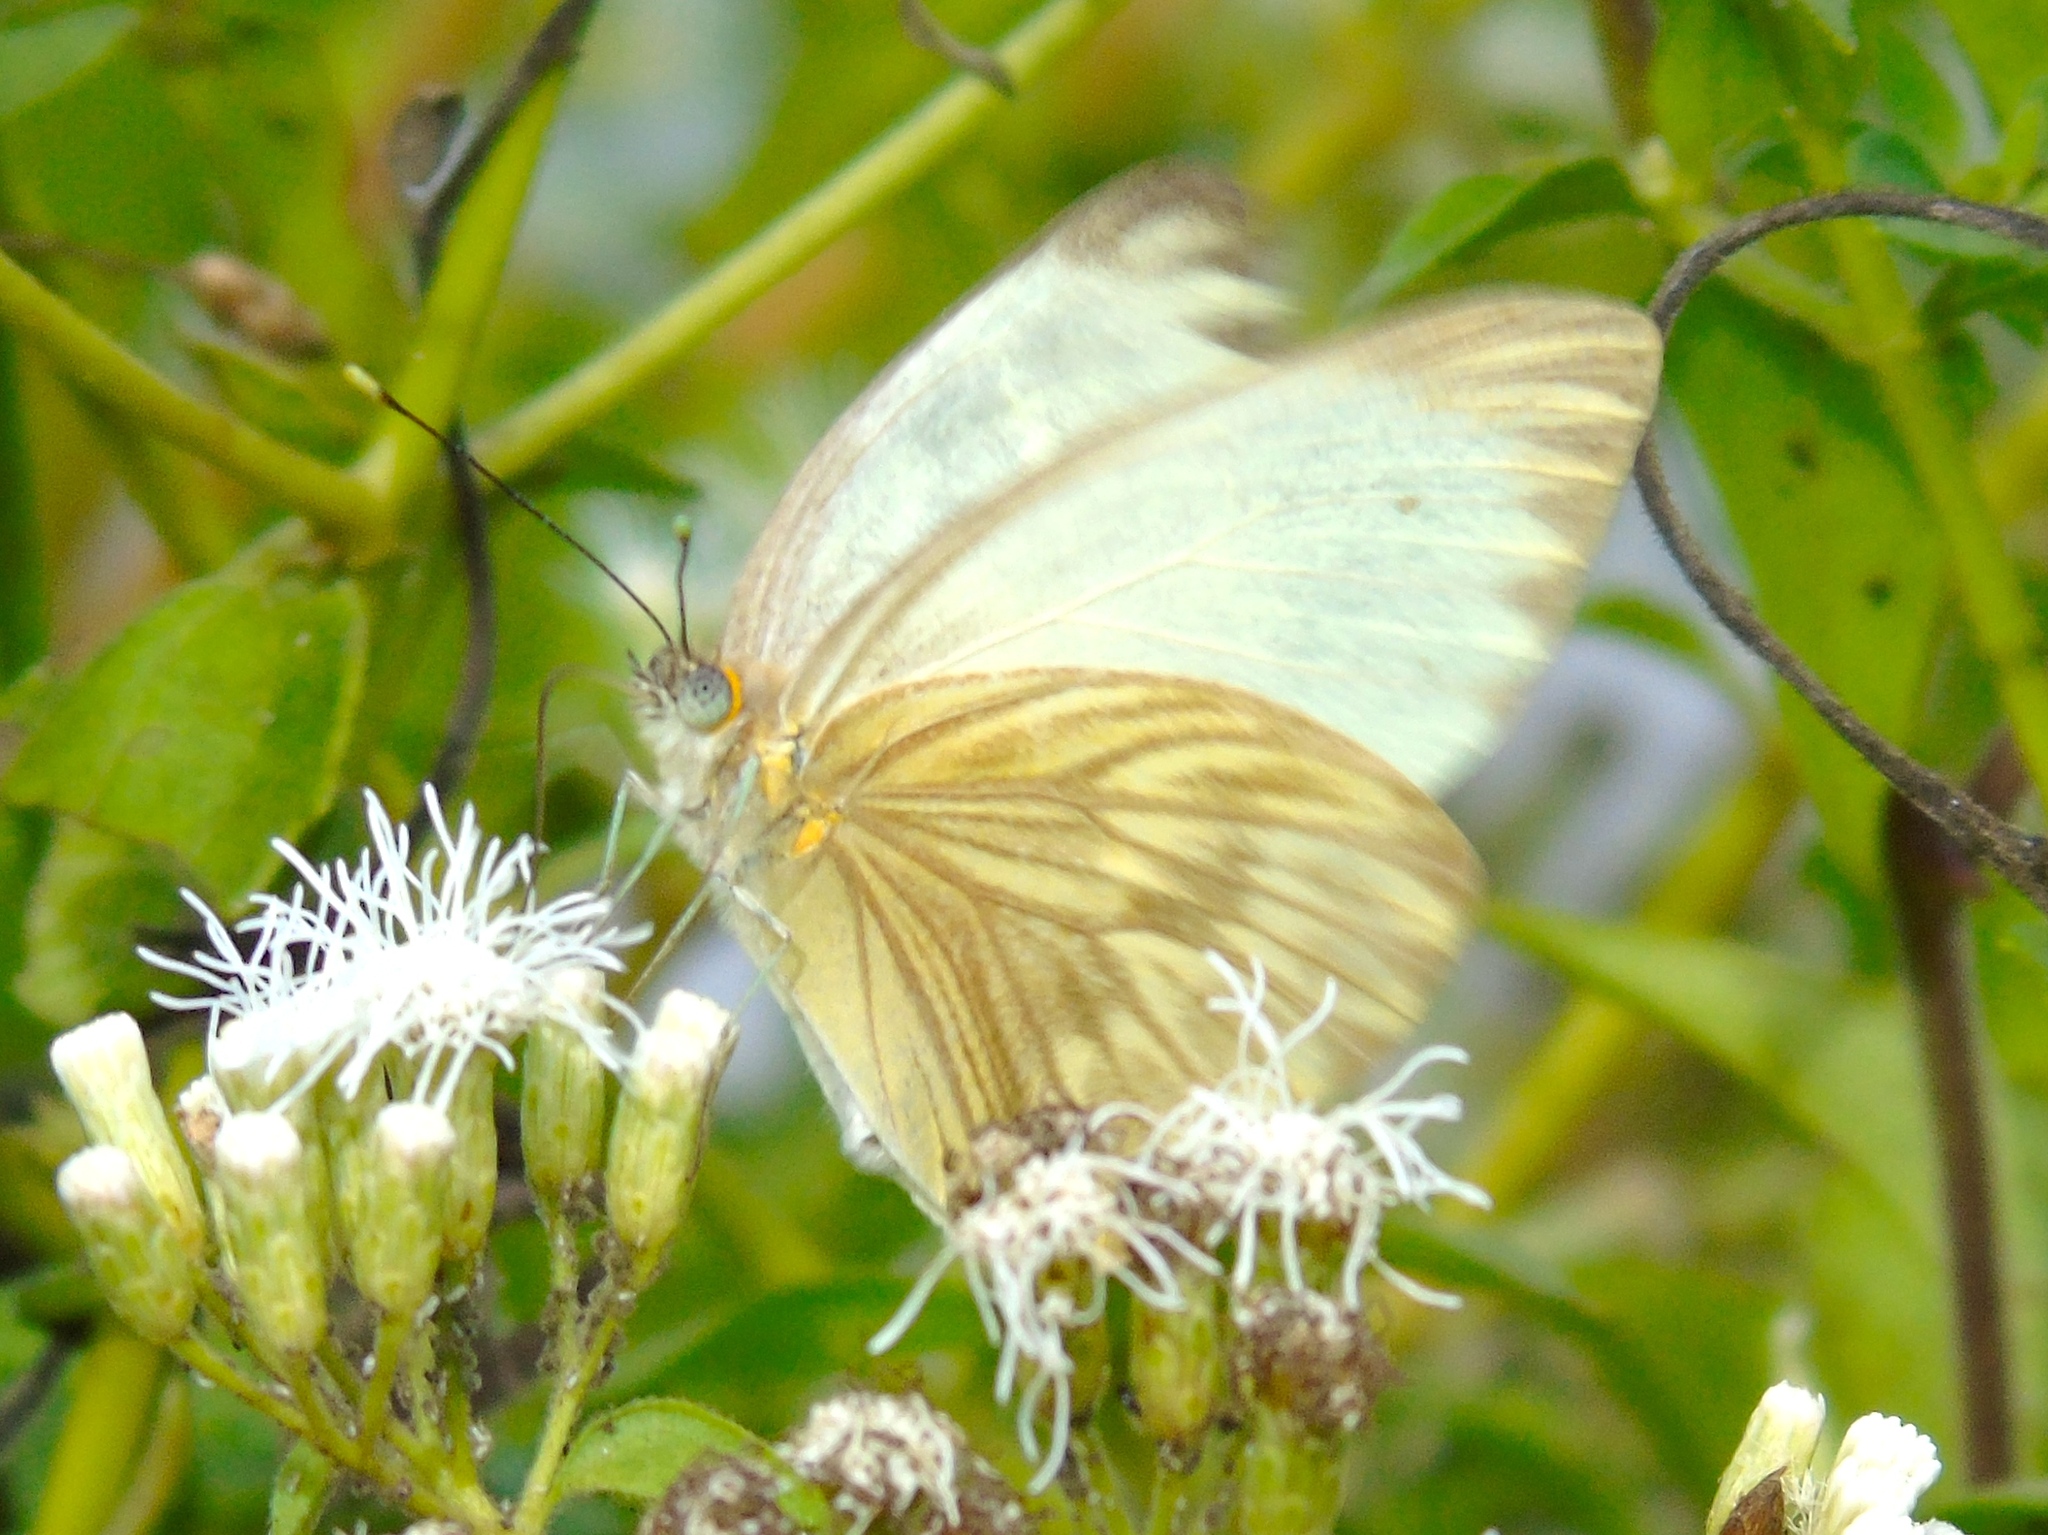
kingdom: Animalia
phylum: Arthropoda
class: Insecta
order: Lepidoptera
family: Pieridae
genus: Ascia
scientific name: Ascia monuste
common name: Great southern white
